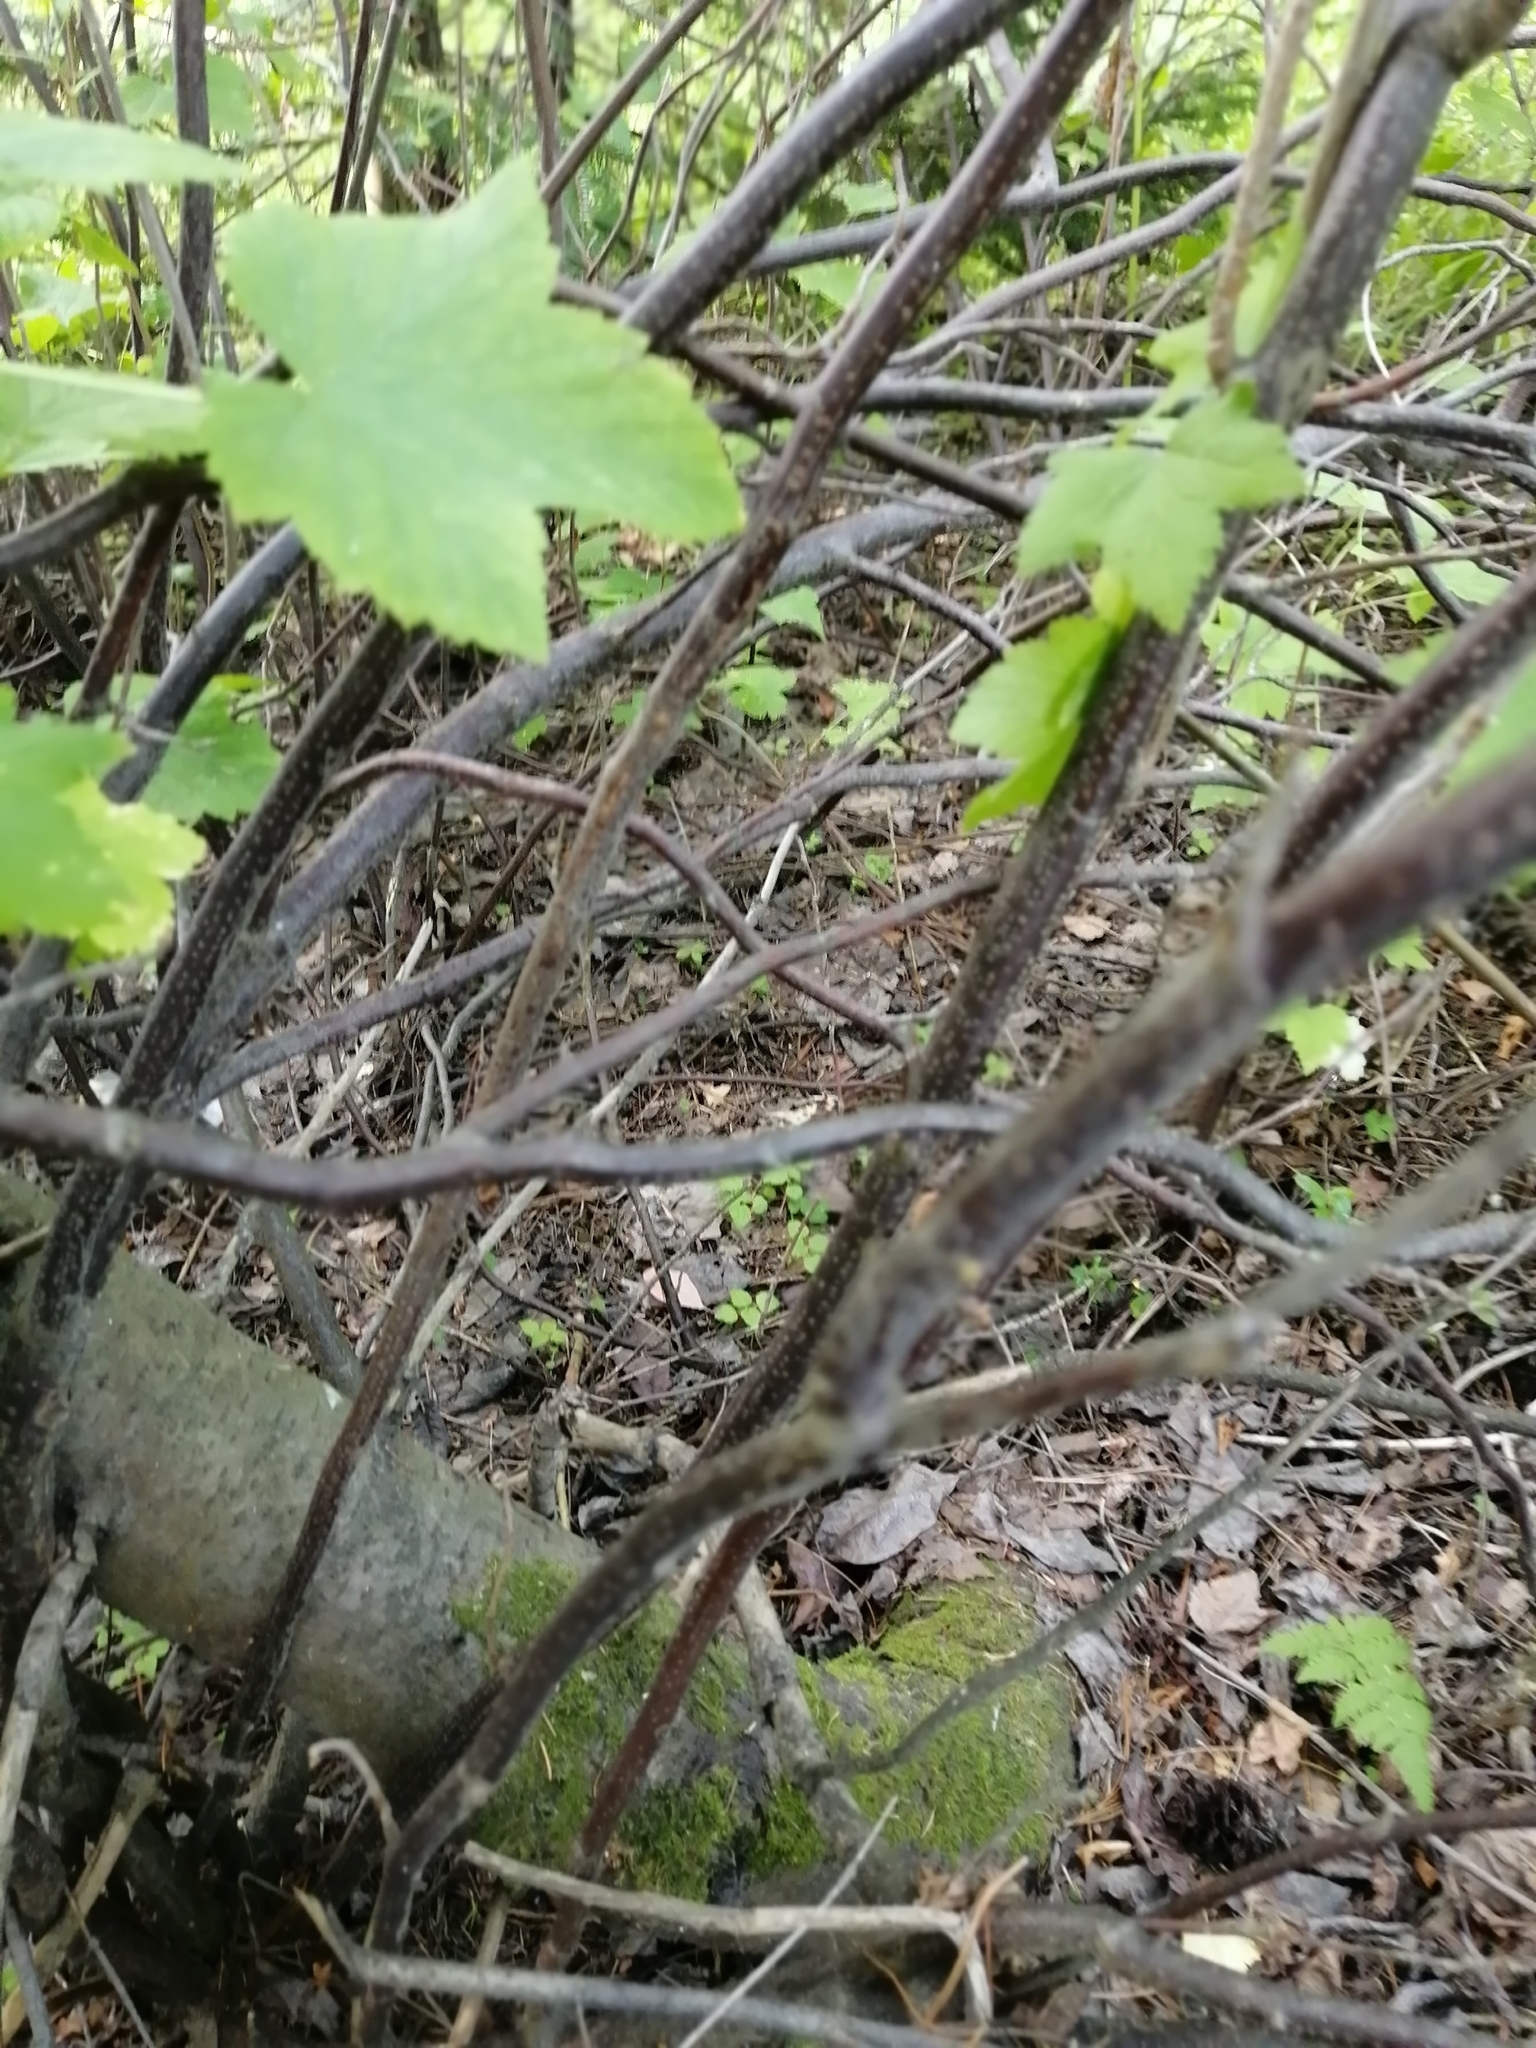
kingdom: Plantae
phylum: Tracheophyta
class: Magnoliopsida
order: Saxifragales
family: Grossulariaceae
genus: Ribes
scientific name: Ribes nigrum
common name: Black currant
